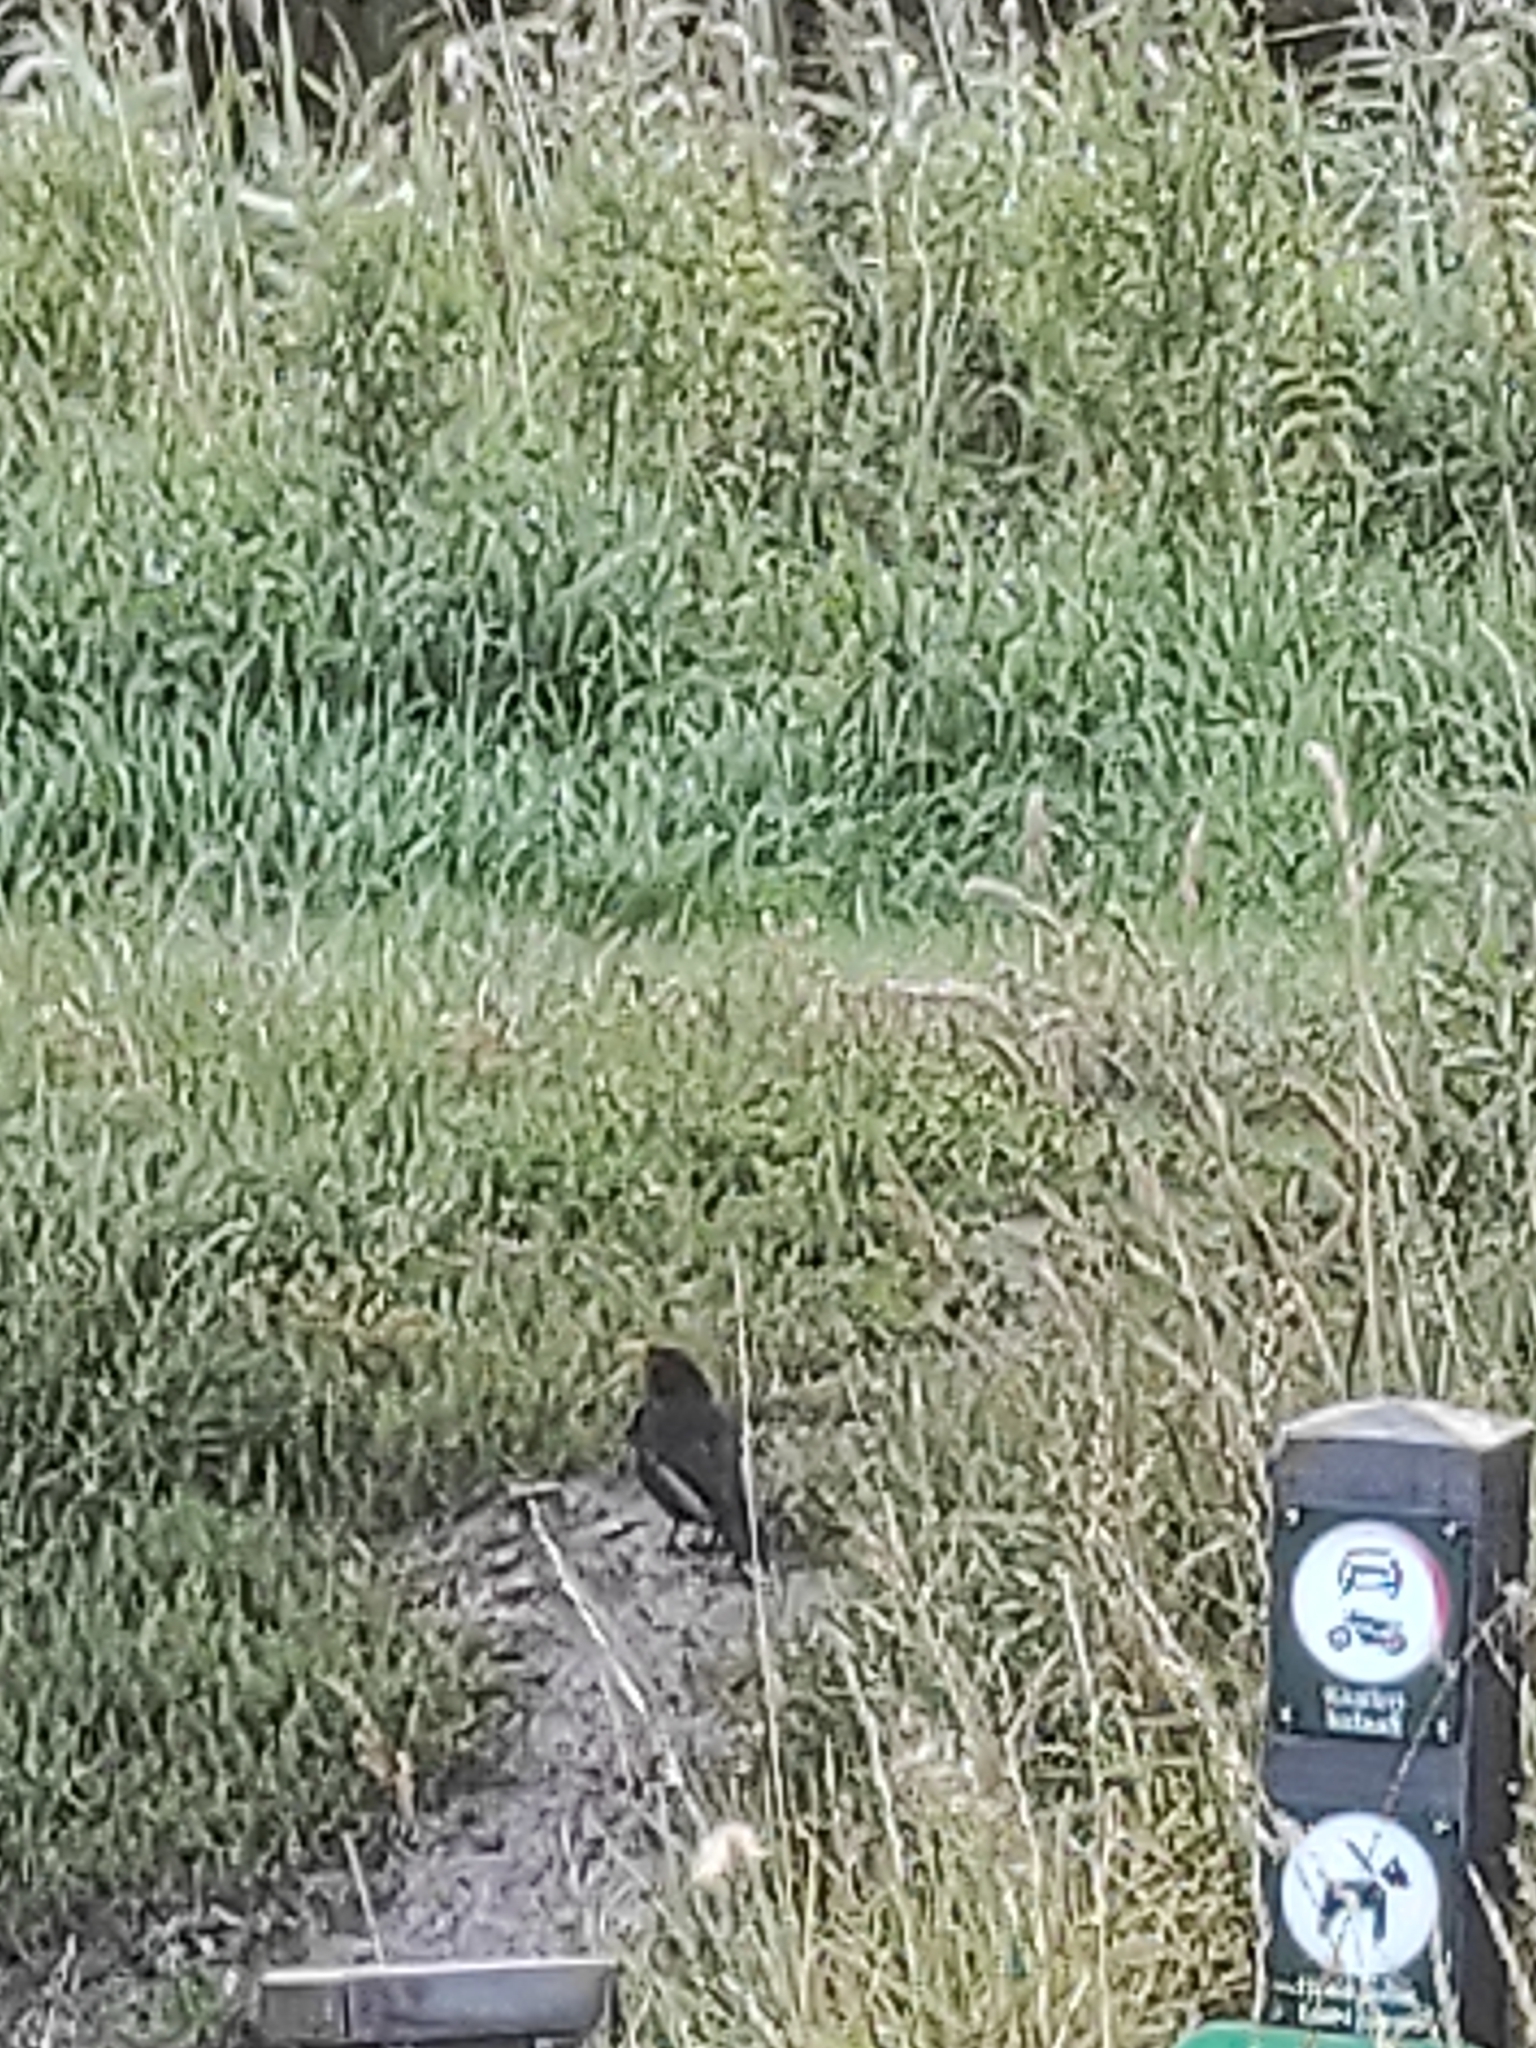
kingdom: Animalia
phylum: Chordata
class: Aves
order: Passeriformes
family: Turdidae
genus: Turdus
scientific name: Turdus merula
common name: Common blackbird
